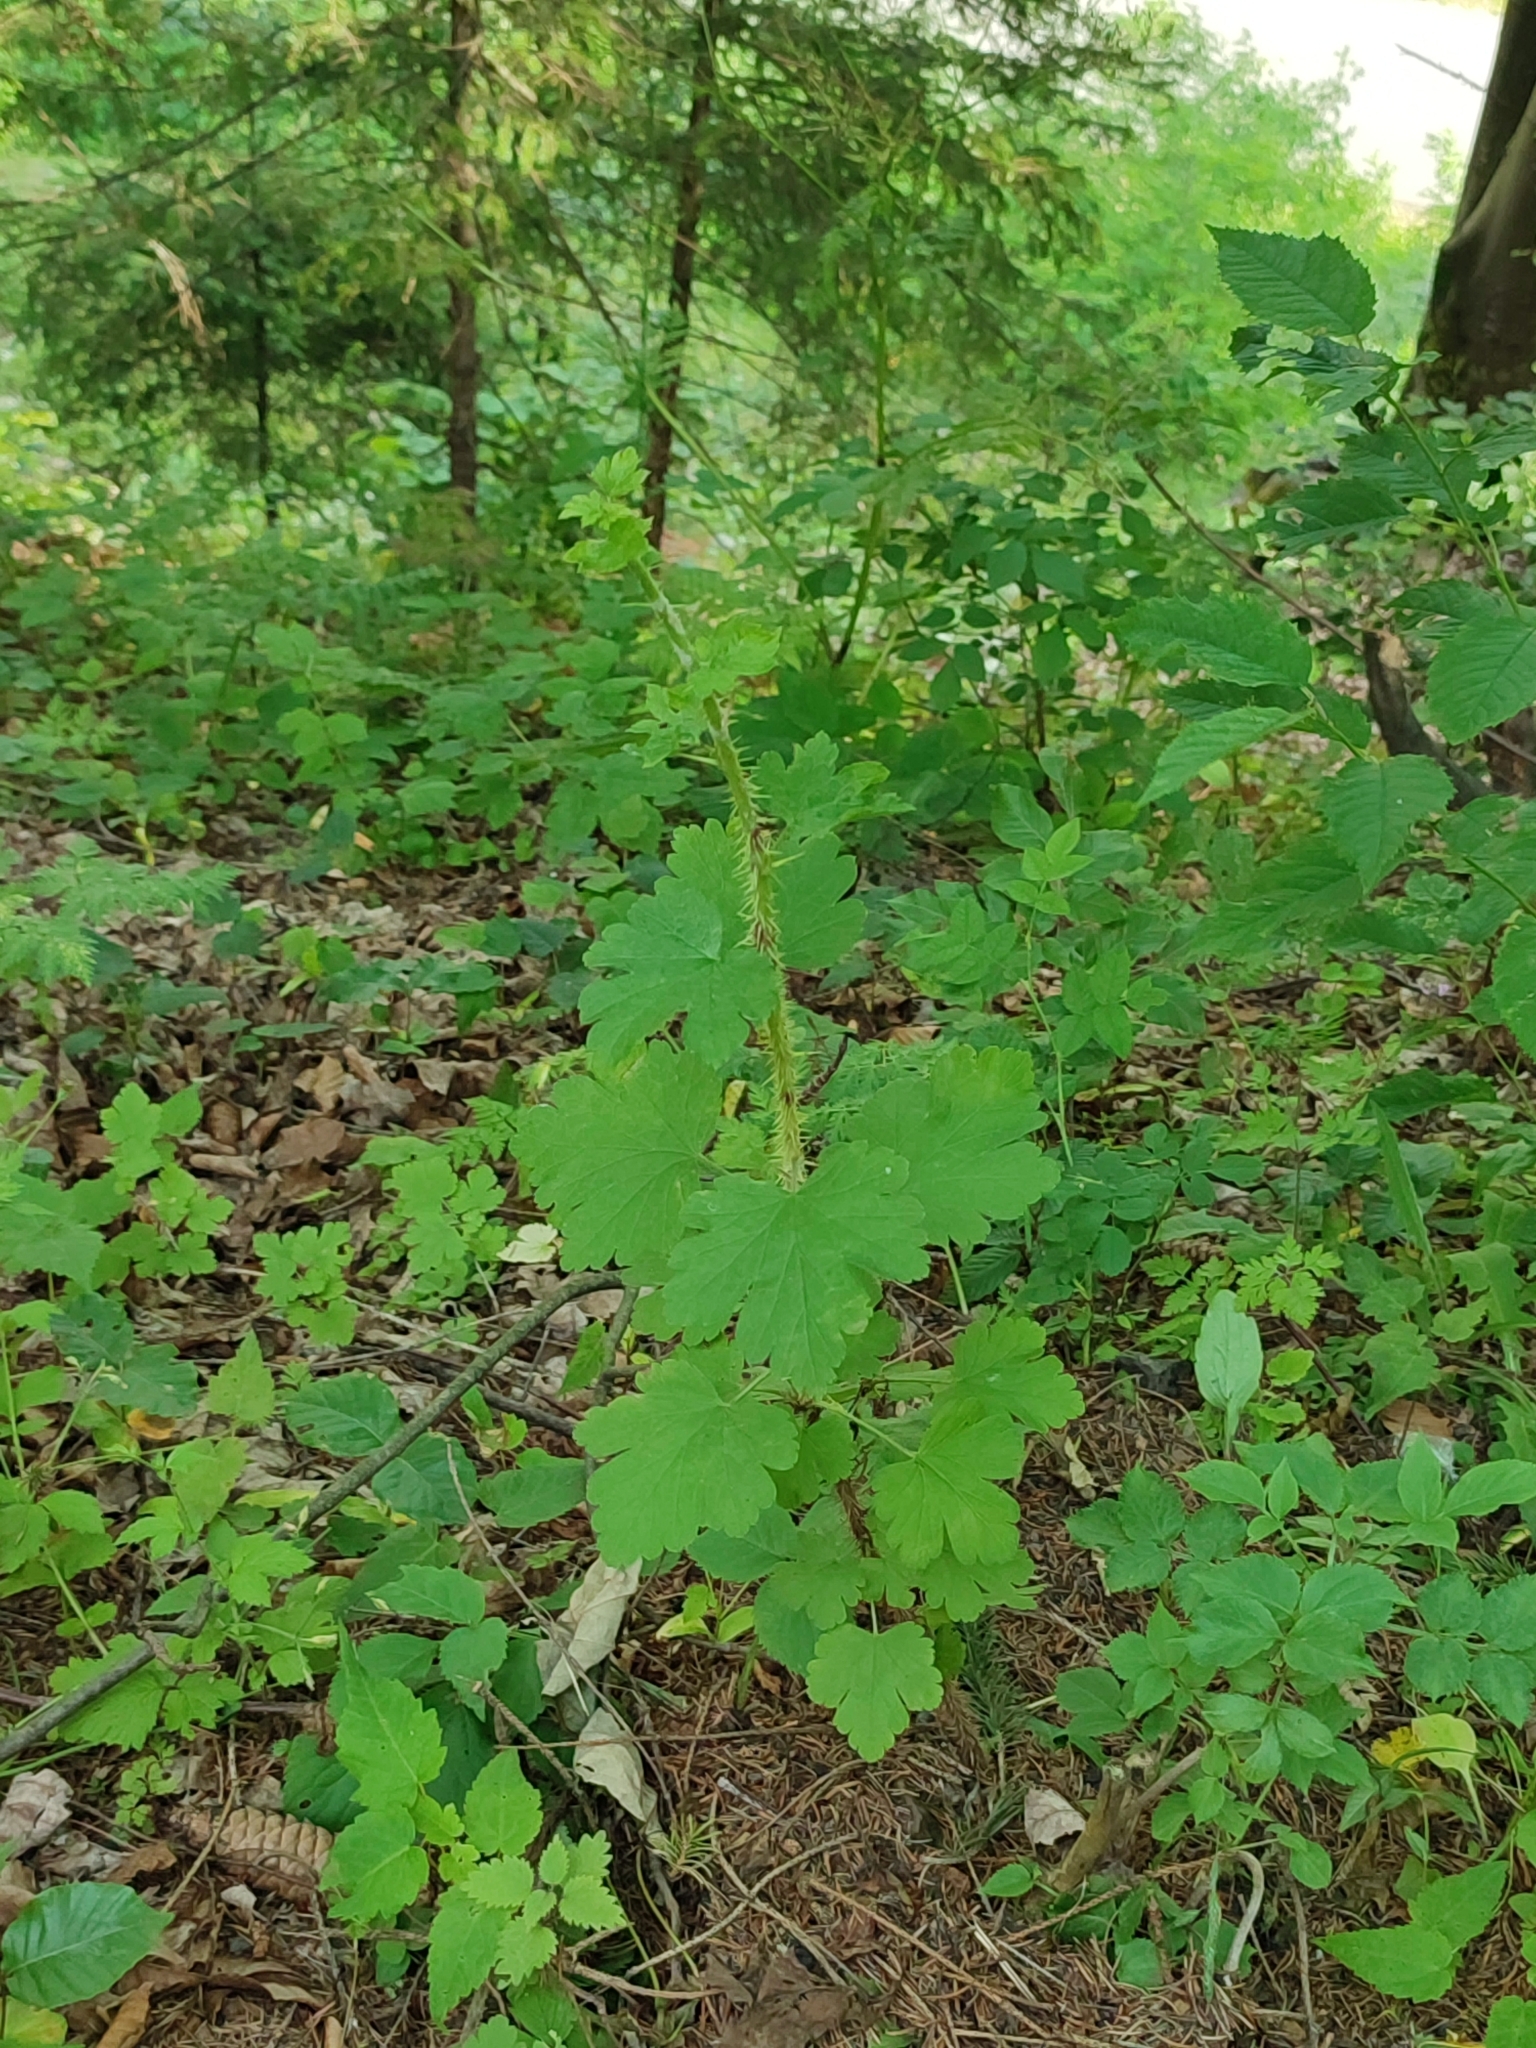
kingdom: Plantae
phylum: Tracheophyta
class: Magnoliopsida
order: Saxifragales
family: Grossulariaceae
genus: Ribes
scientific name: Ribes uva-crispa
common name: Gooseberry
